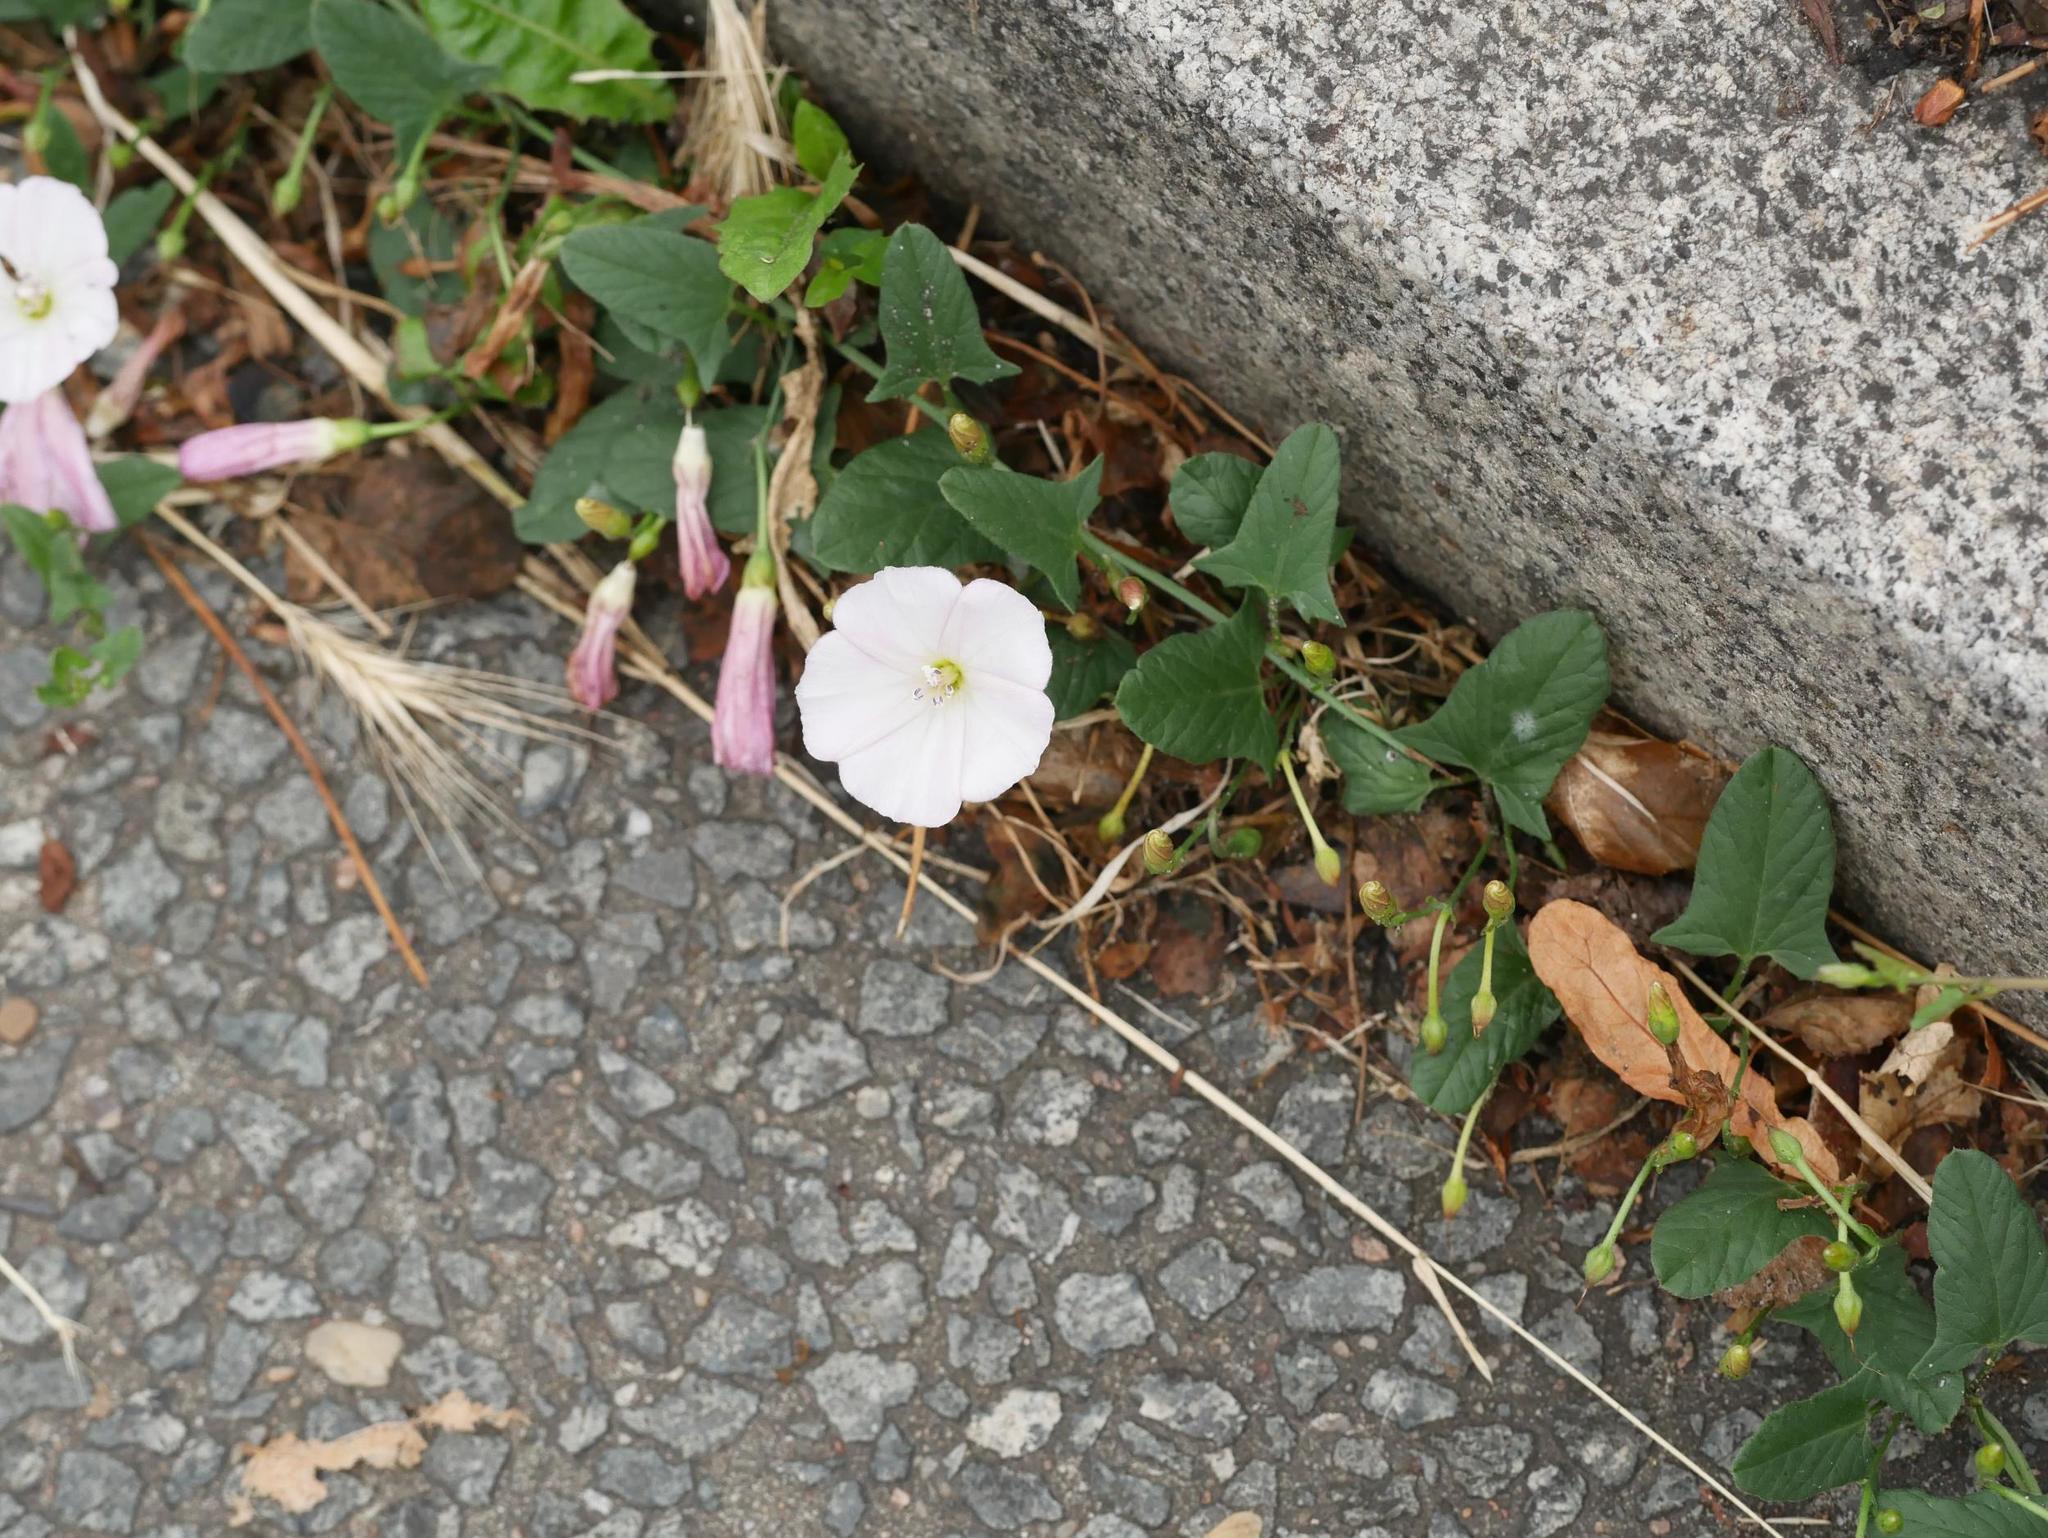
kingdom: Plantae
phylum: Tracheophyta
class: Magnoliopsida
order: Solanales
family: Convolvulaceae
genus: Convolvulus
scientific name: Convolvulus arvensis
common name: Field bindweed
